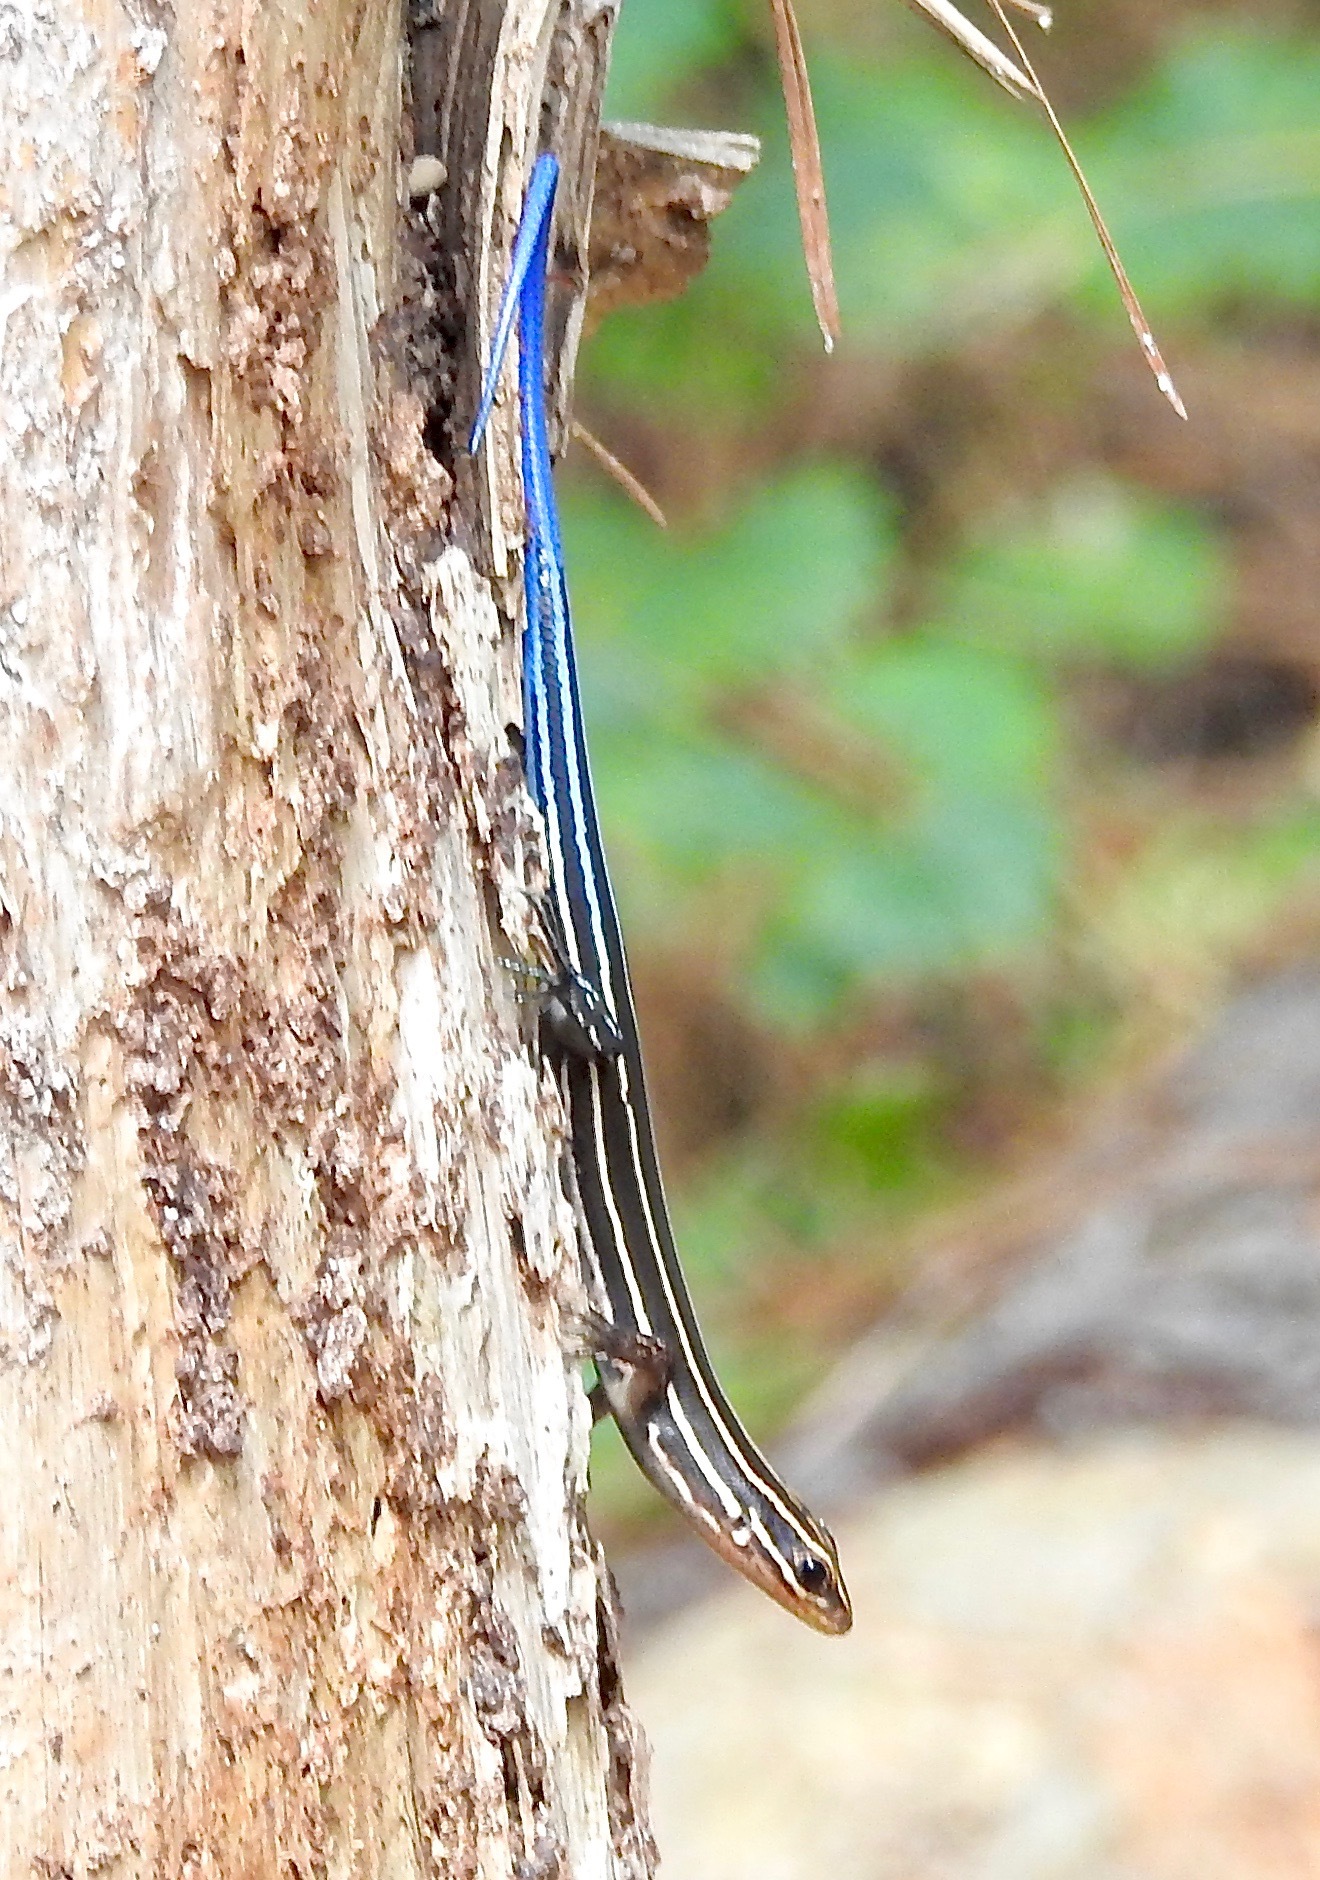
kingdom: Animalia
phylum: Chordata
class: Squamata
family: Scincidae
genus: Plestiodon
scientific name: Plestiodon laticeps
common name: Broadhead skink
